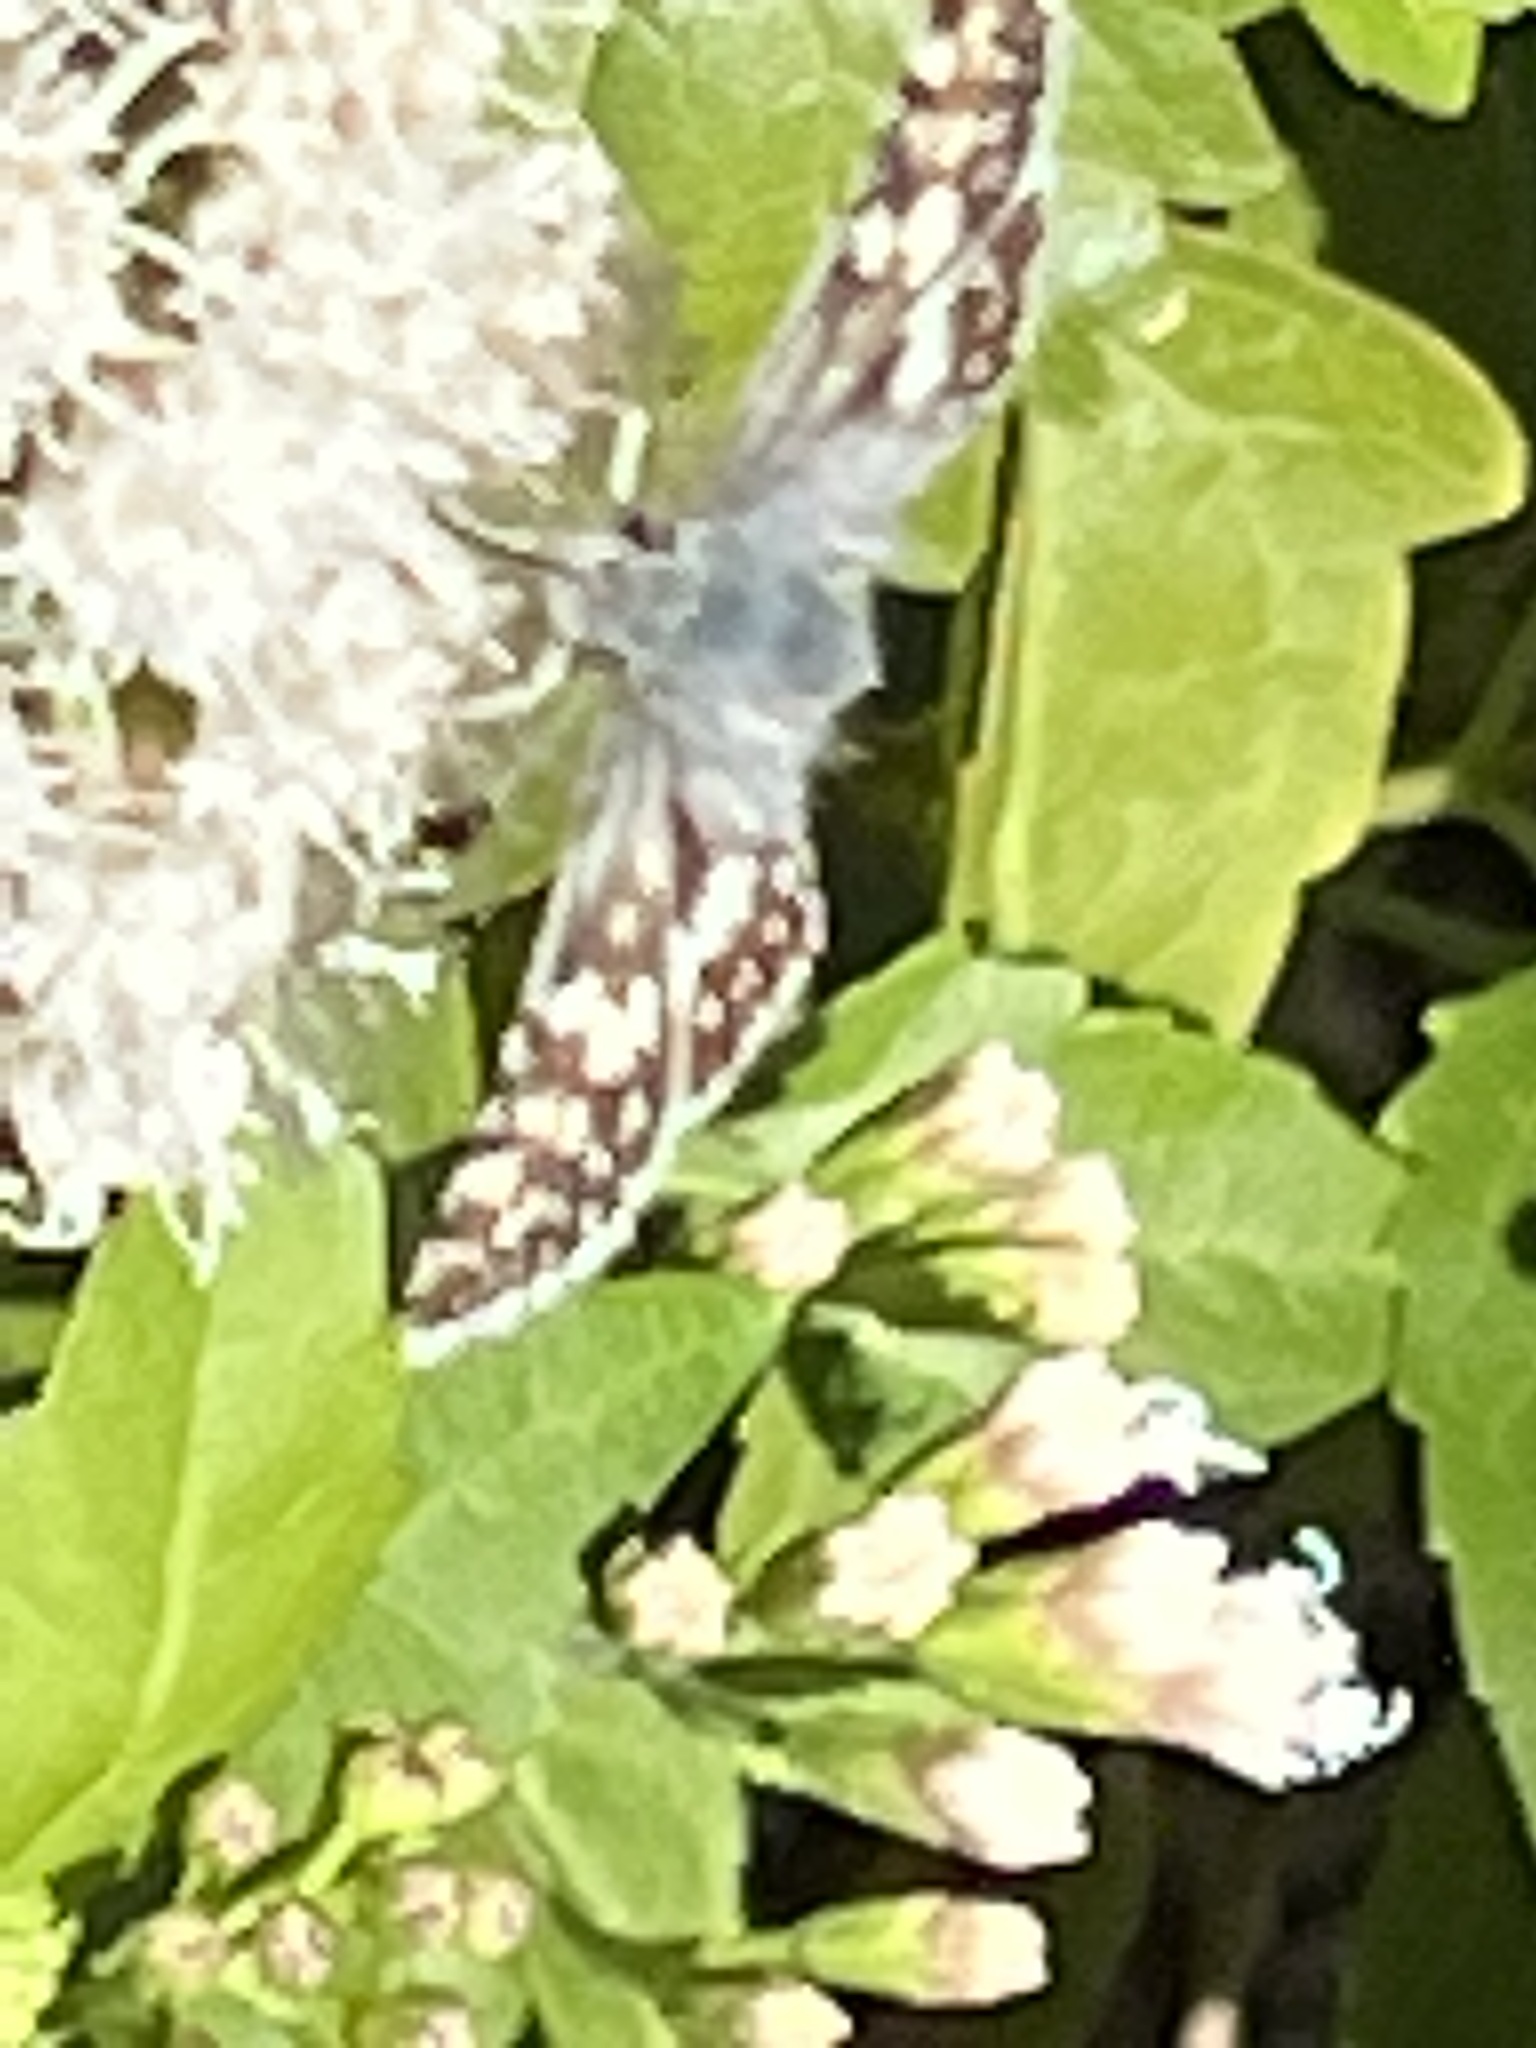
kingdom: Animalia
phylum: Arthropoda
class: Insecta
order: Lepidoptera
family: Hesperiidae
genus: Burnsius
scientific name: Burnsius
